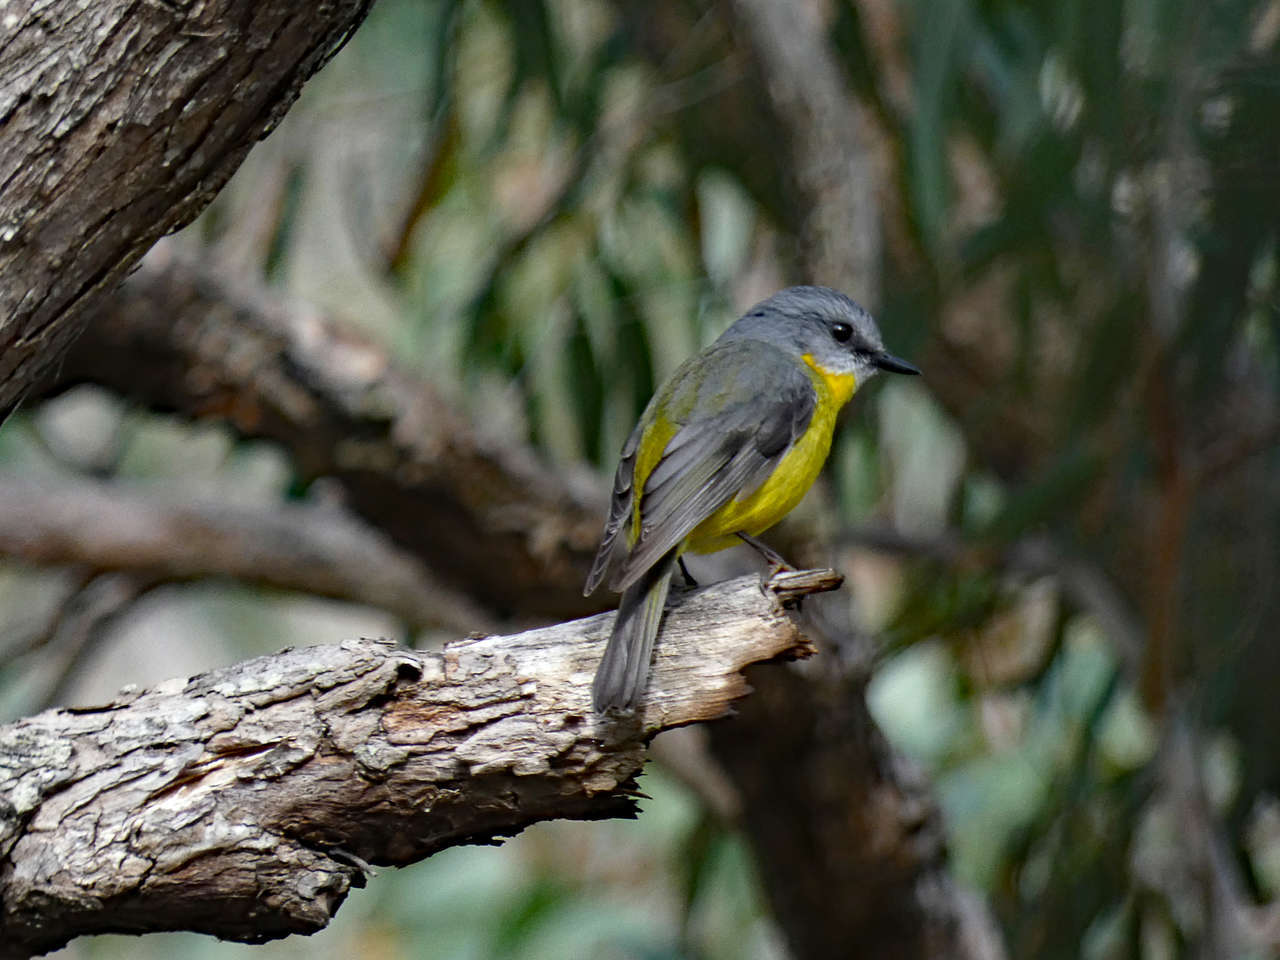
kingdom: Animalia
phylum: Chordata
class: Aves
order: Passeriformes
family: Petroicidae
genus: Eopsaltria
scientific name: Eopsaltria australis
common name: Eastern yellow robin
